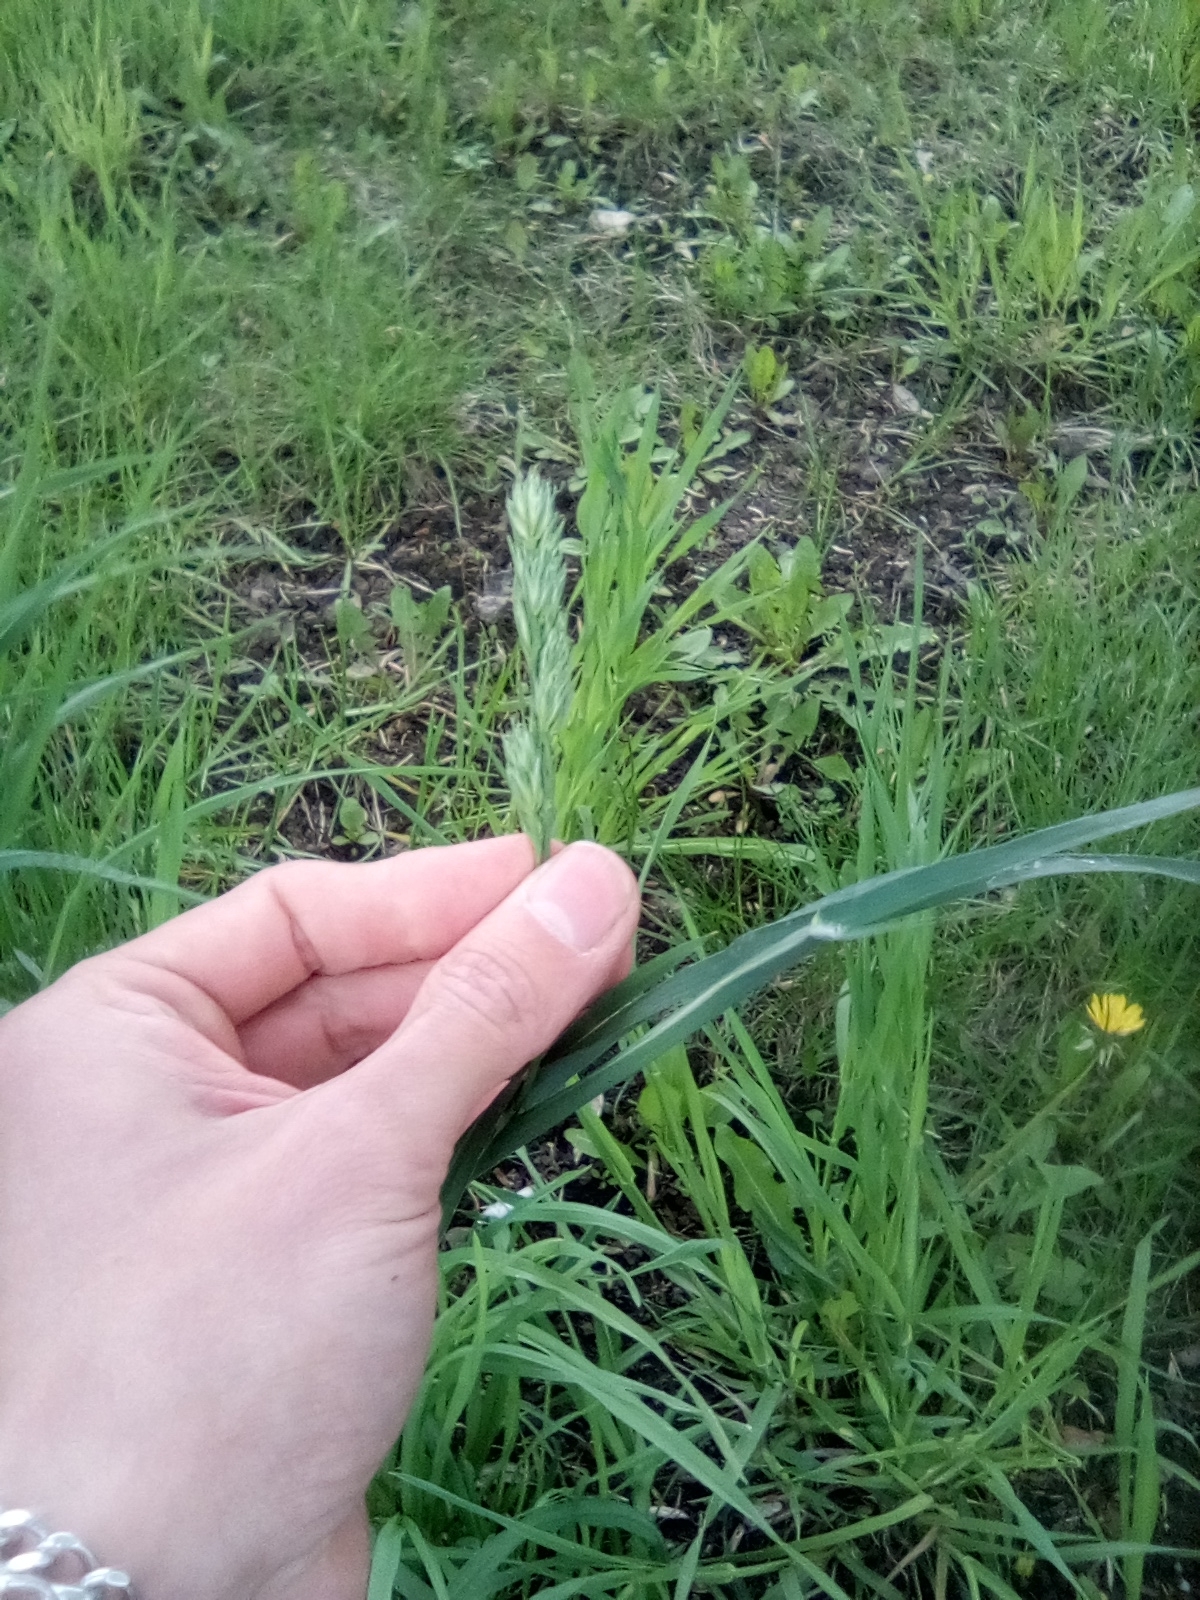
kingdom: Plantae
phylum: Tracheophyta
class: Liliopsida
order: Poales
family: Poaceae
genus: Dactylis
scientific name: Dactylis glomerata
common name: Orchardgrass
